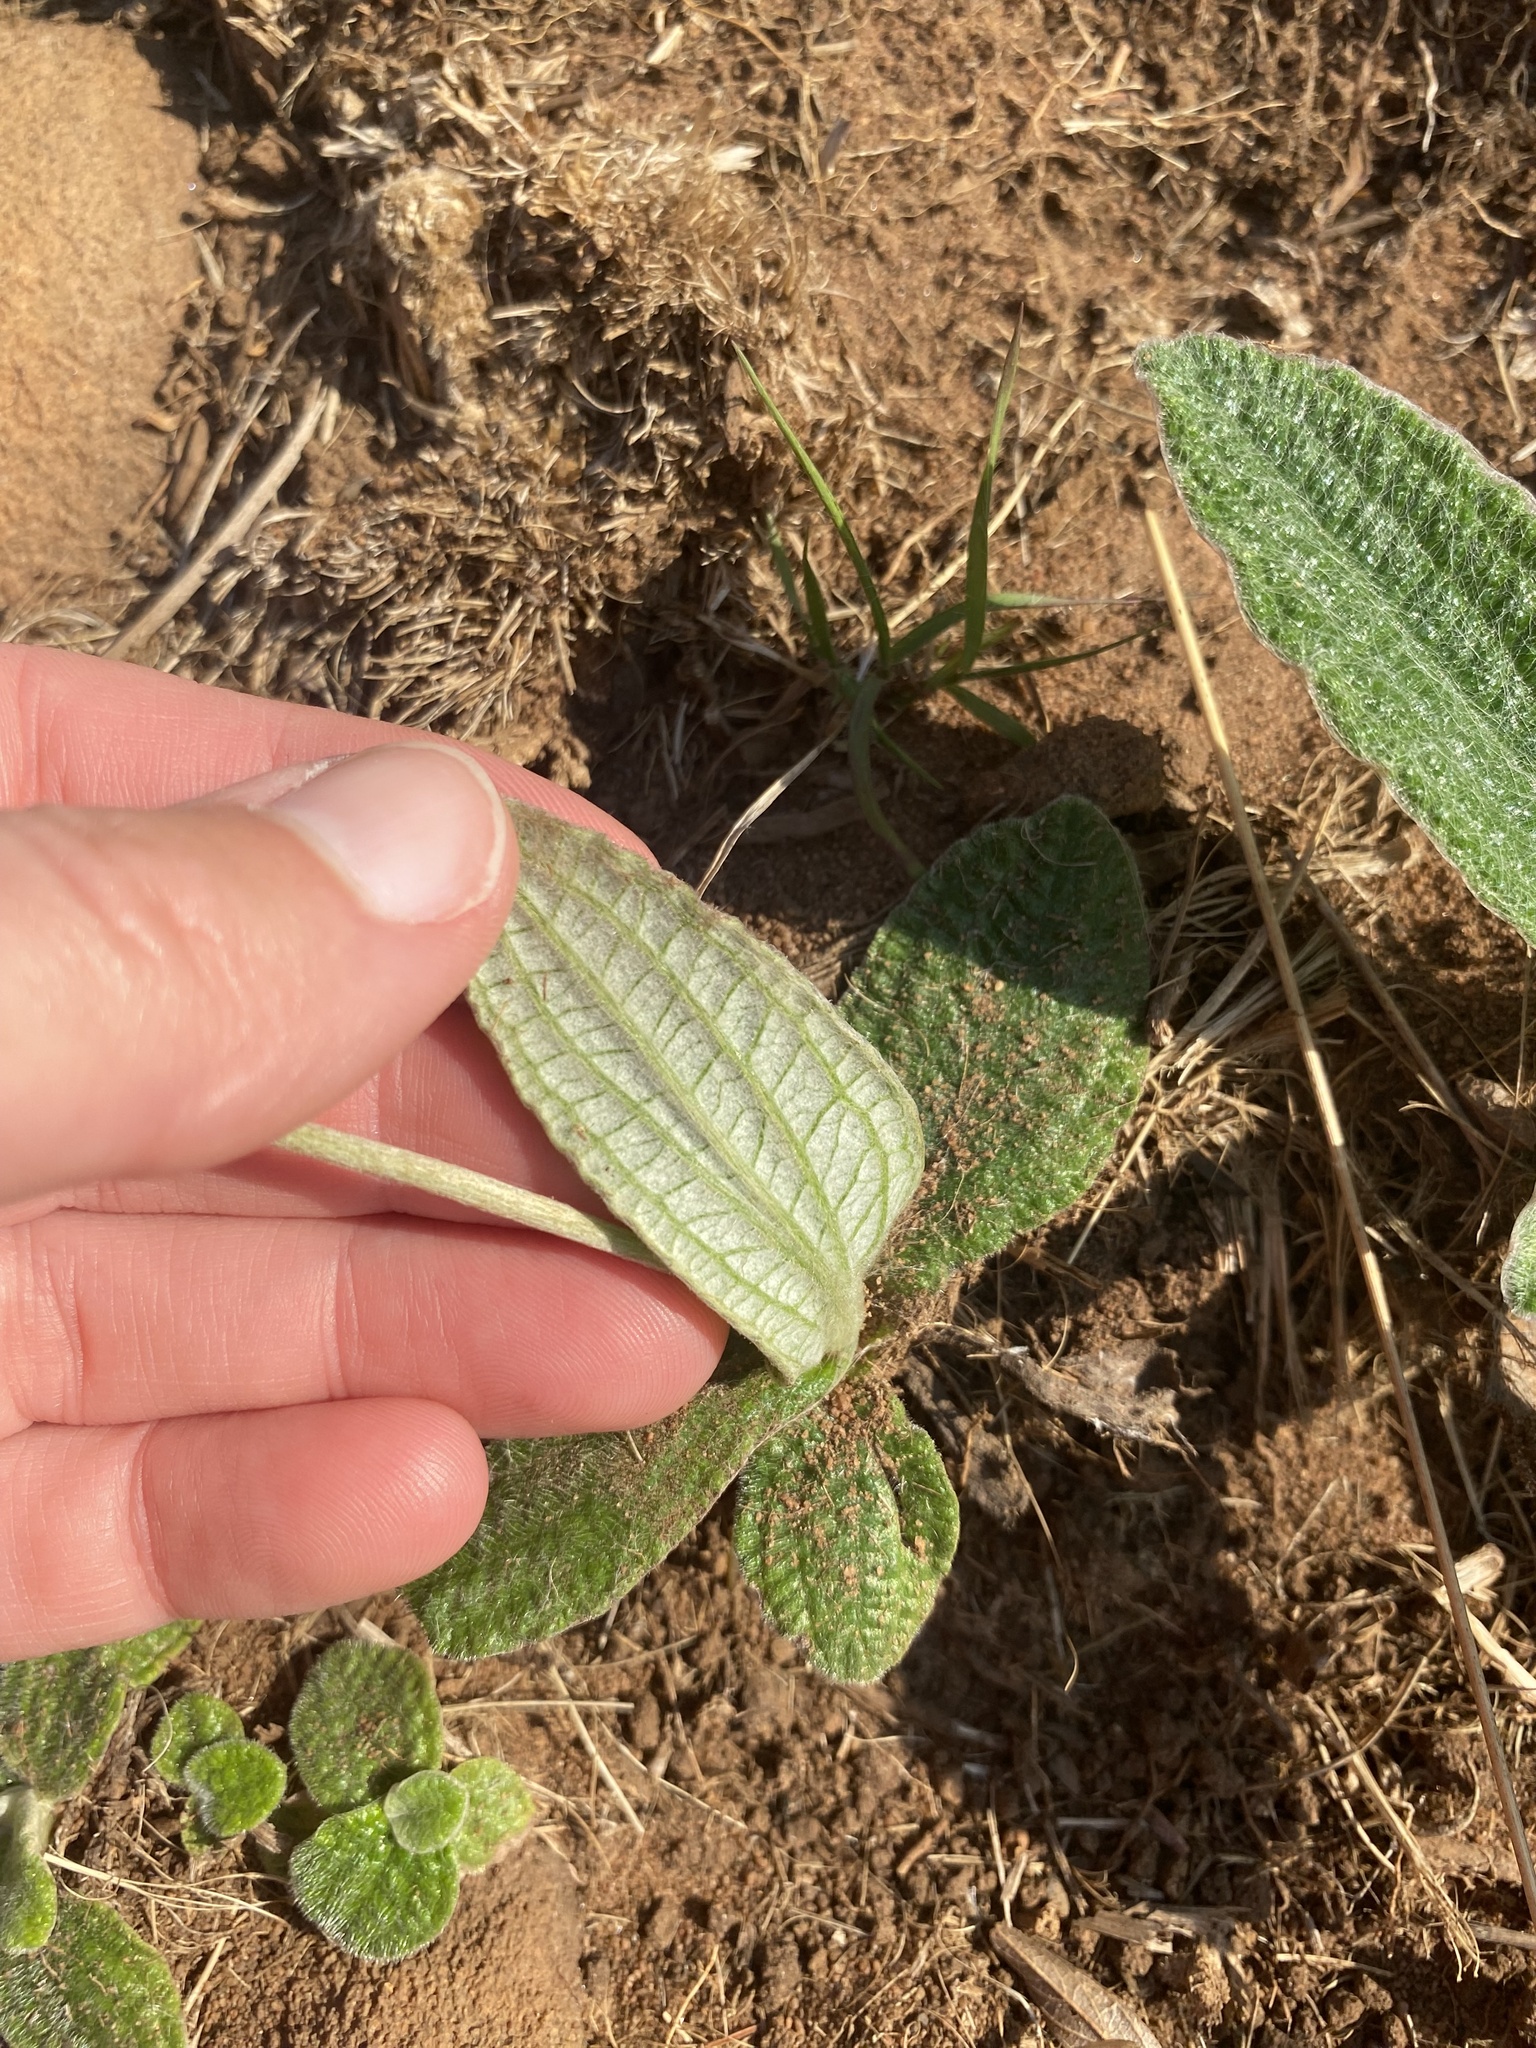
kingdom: Plantae
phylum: Tracheophyta
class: Magnoliopsida
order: Asterales
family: Asteraceae
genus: Helichrysum
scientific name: Helichrysum nudifolium
